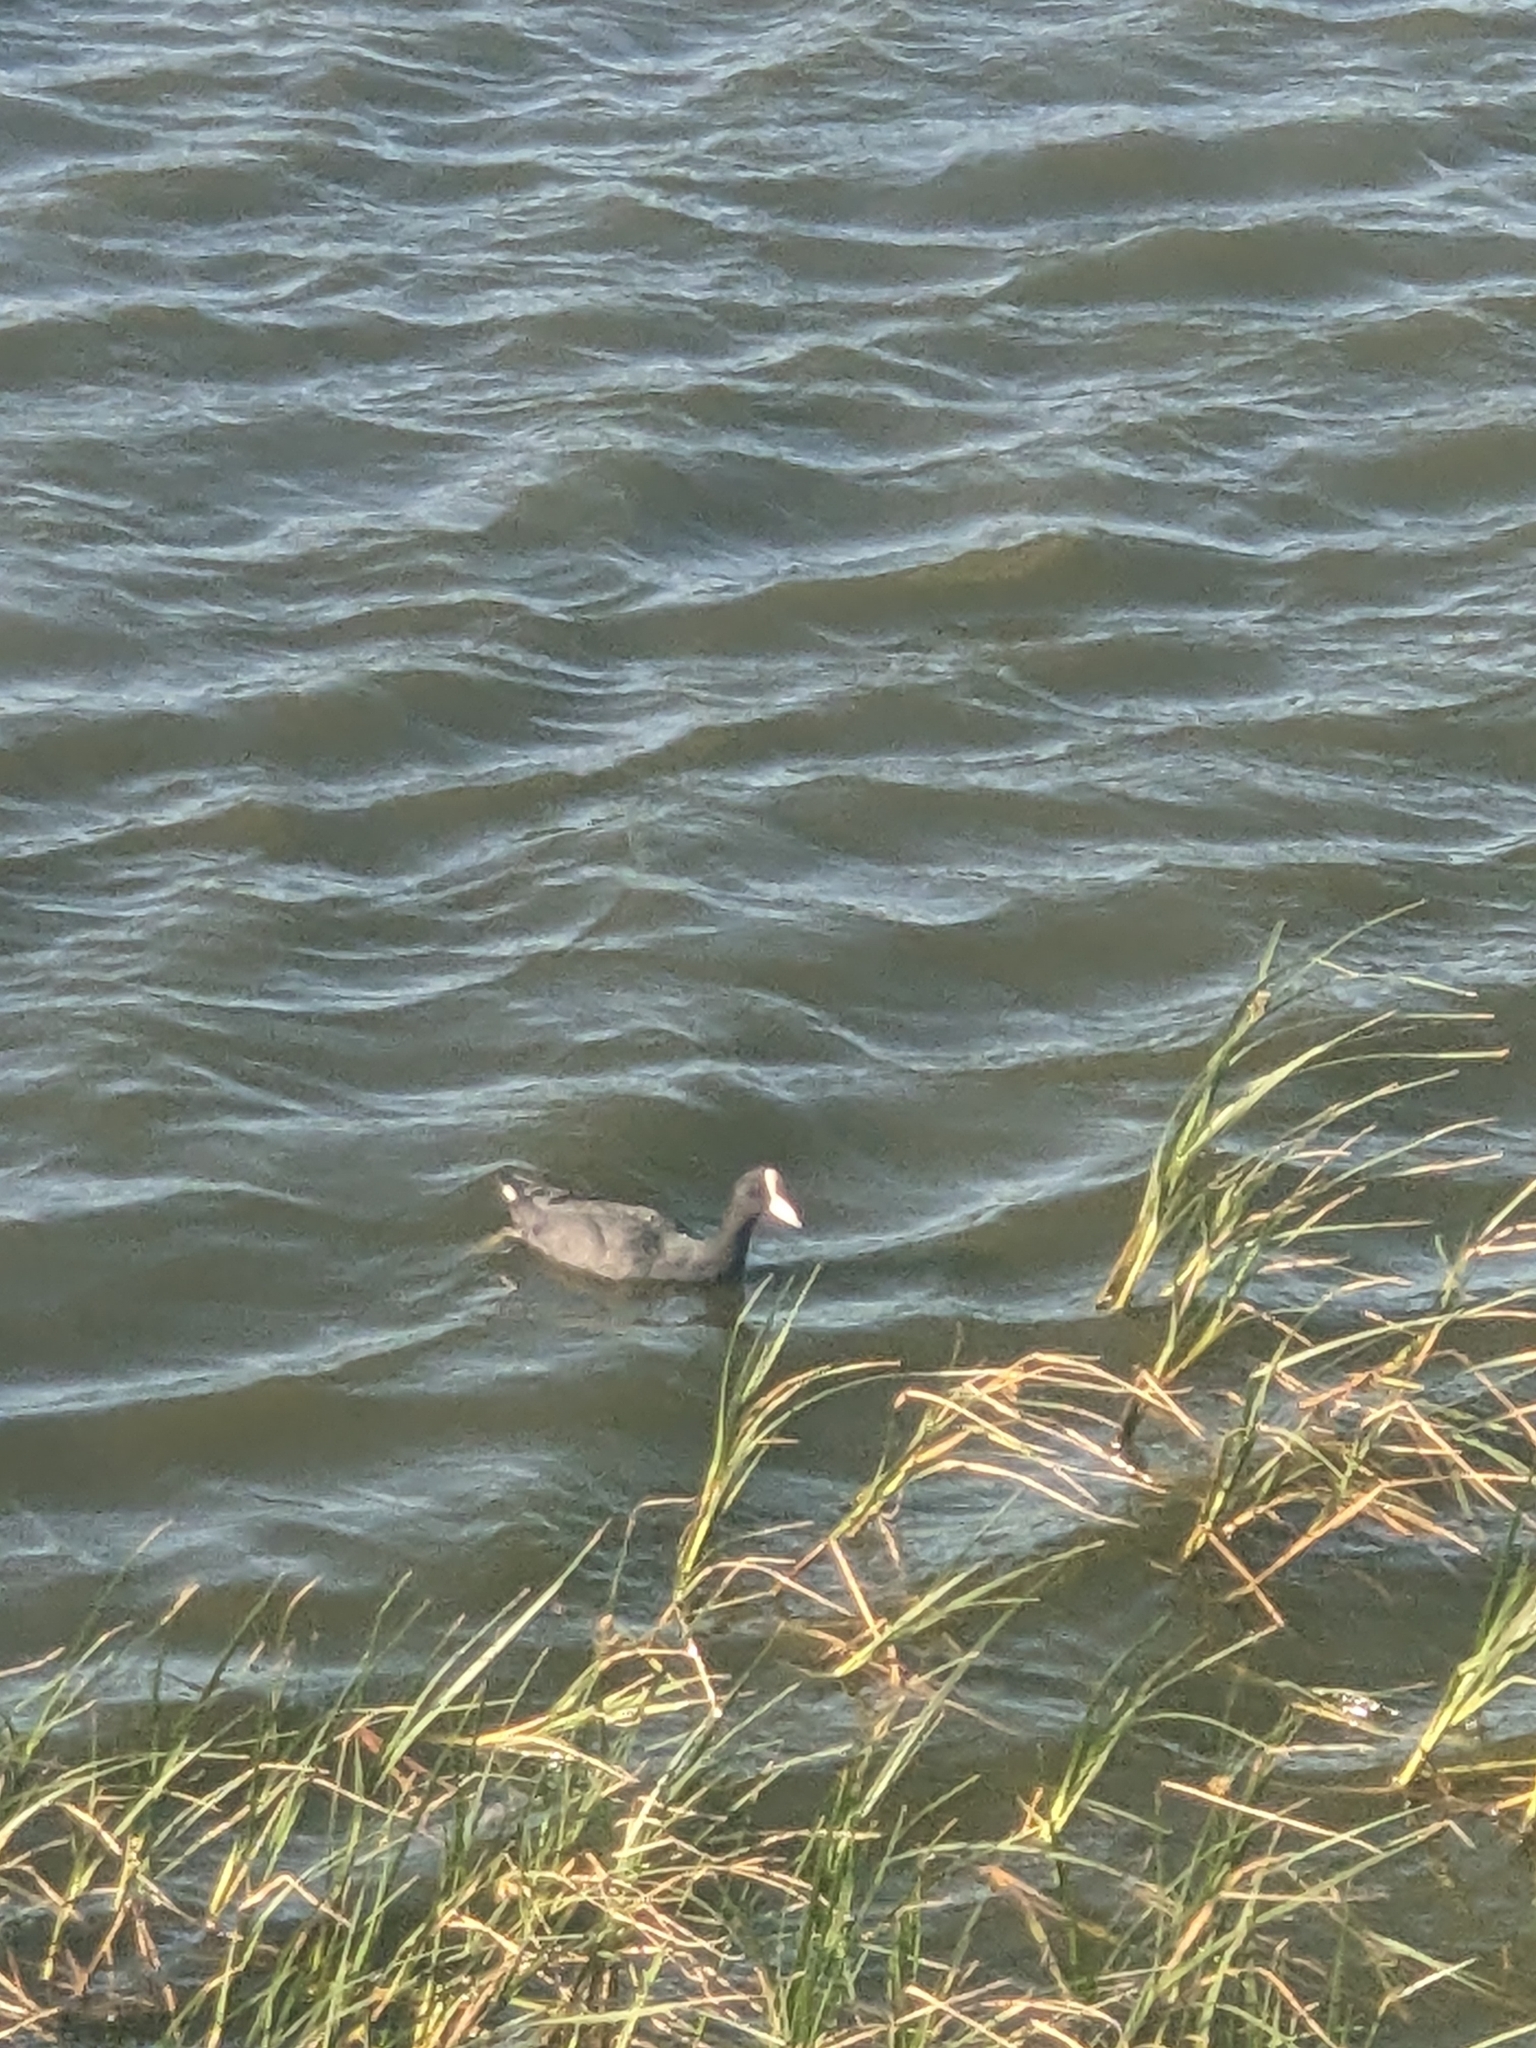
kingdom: Animalia
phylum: Chordata
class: Aves
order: Gruiformes
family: Rallidae
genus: Fulica
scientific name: Fulica alai
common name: Hawaiian coot
